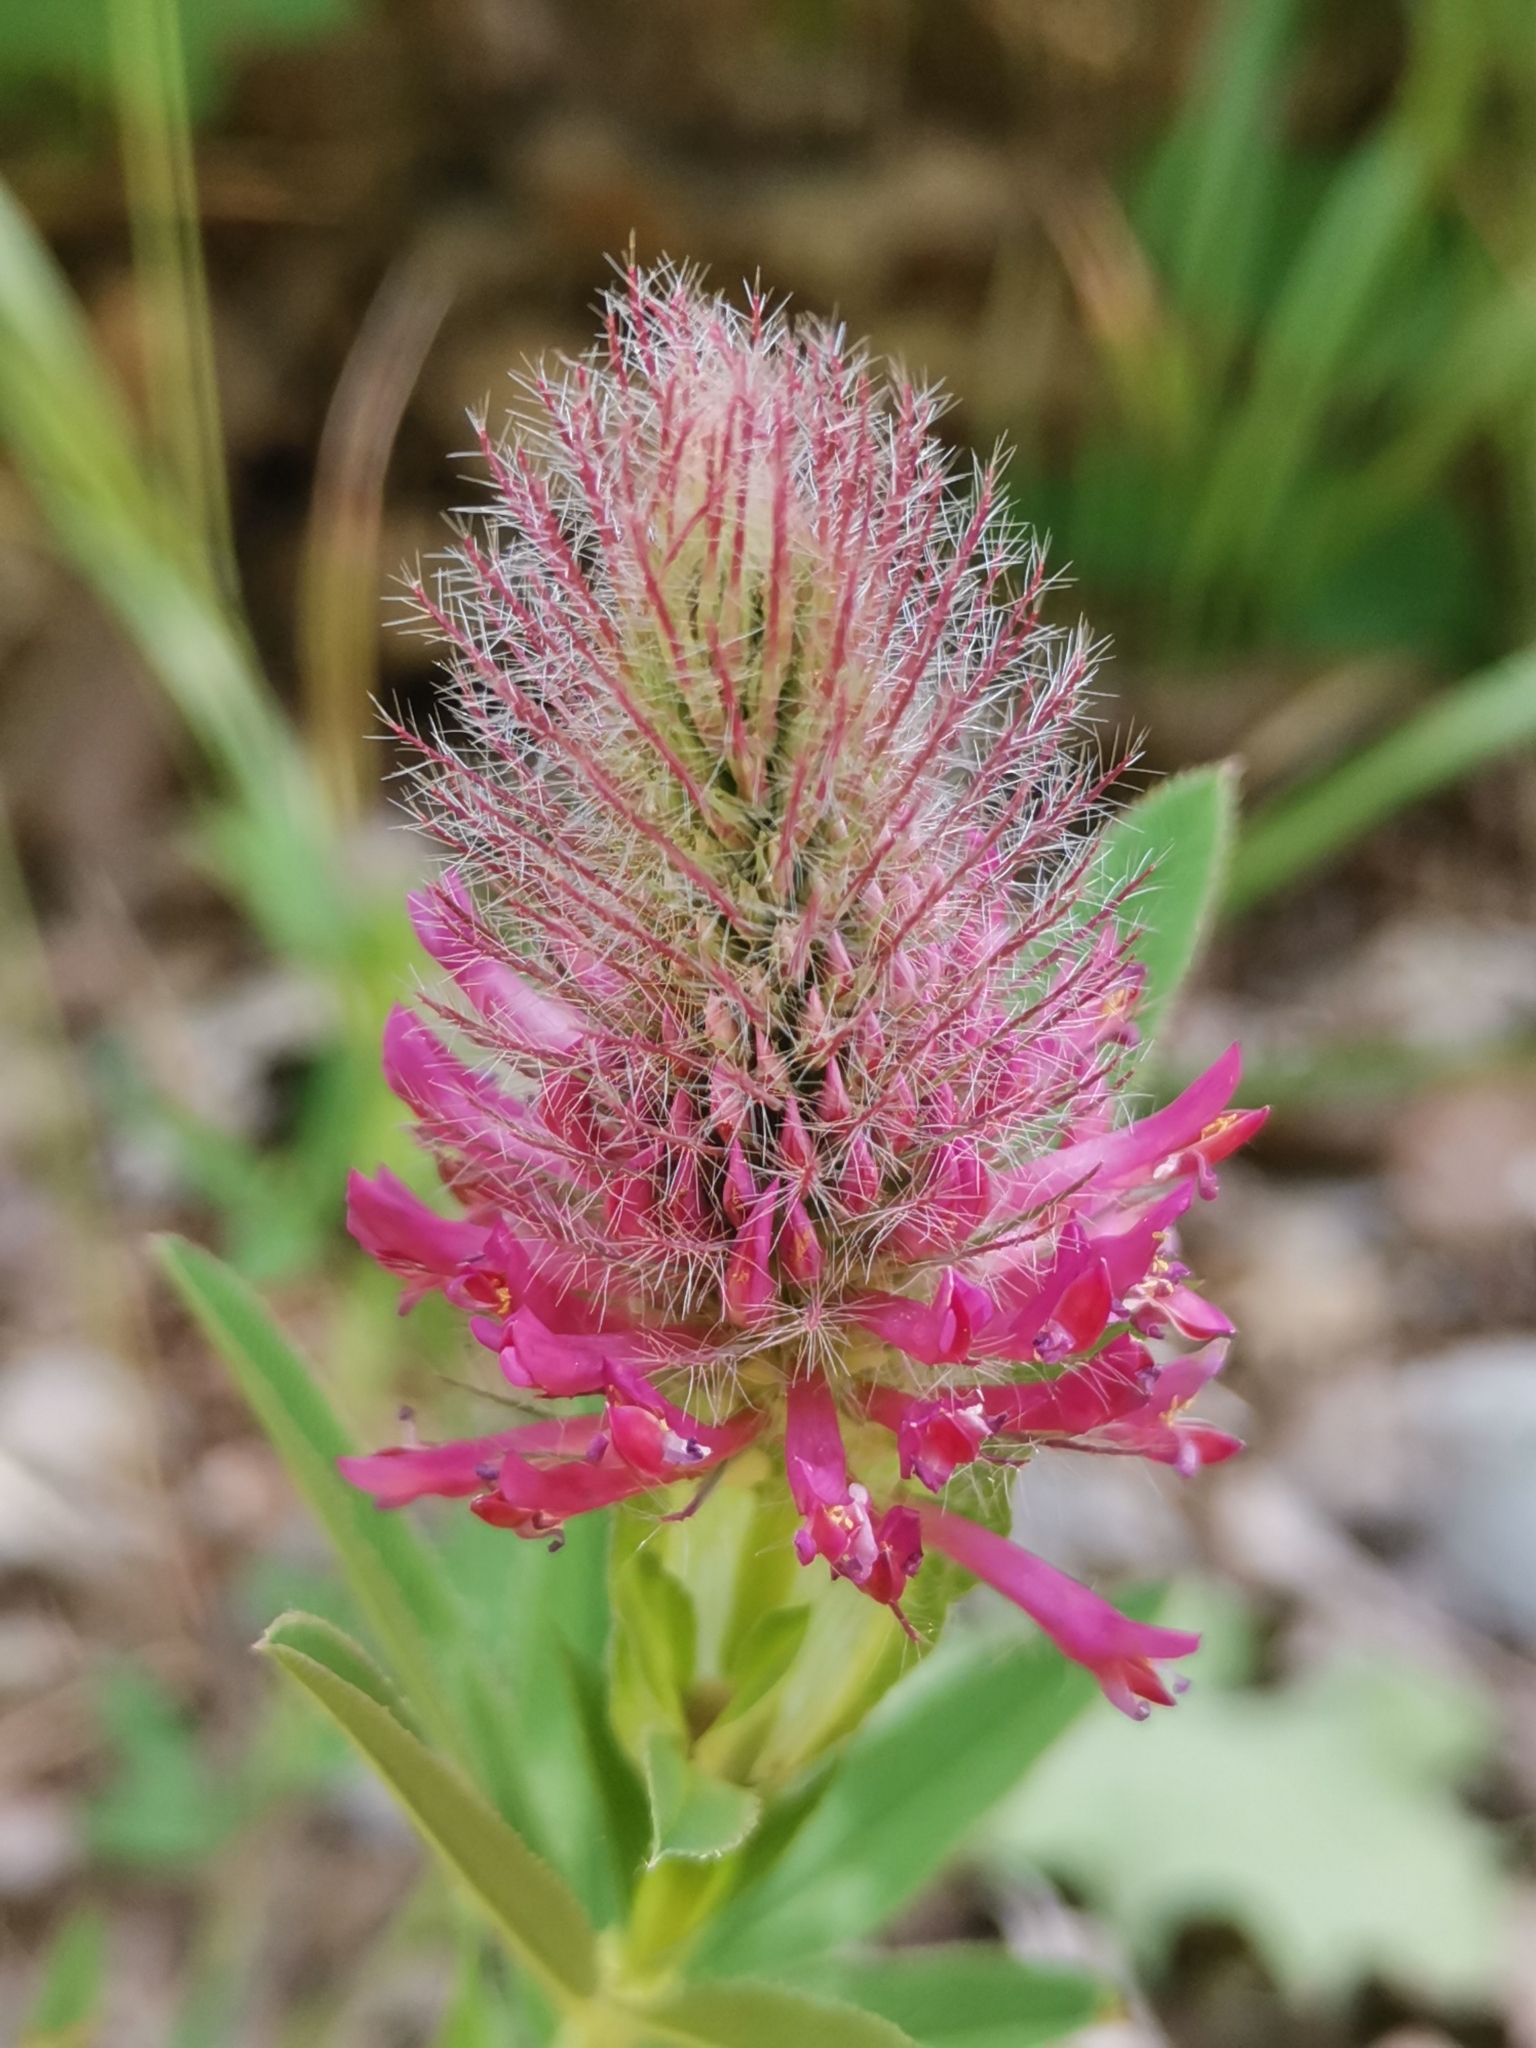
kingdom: Plantae
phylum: Tracheophyta
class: Magnoliopsida
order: Fabales
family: Fabaceae
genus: Trifolium
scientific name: Trifolium rubens
